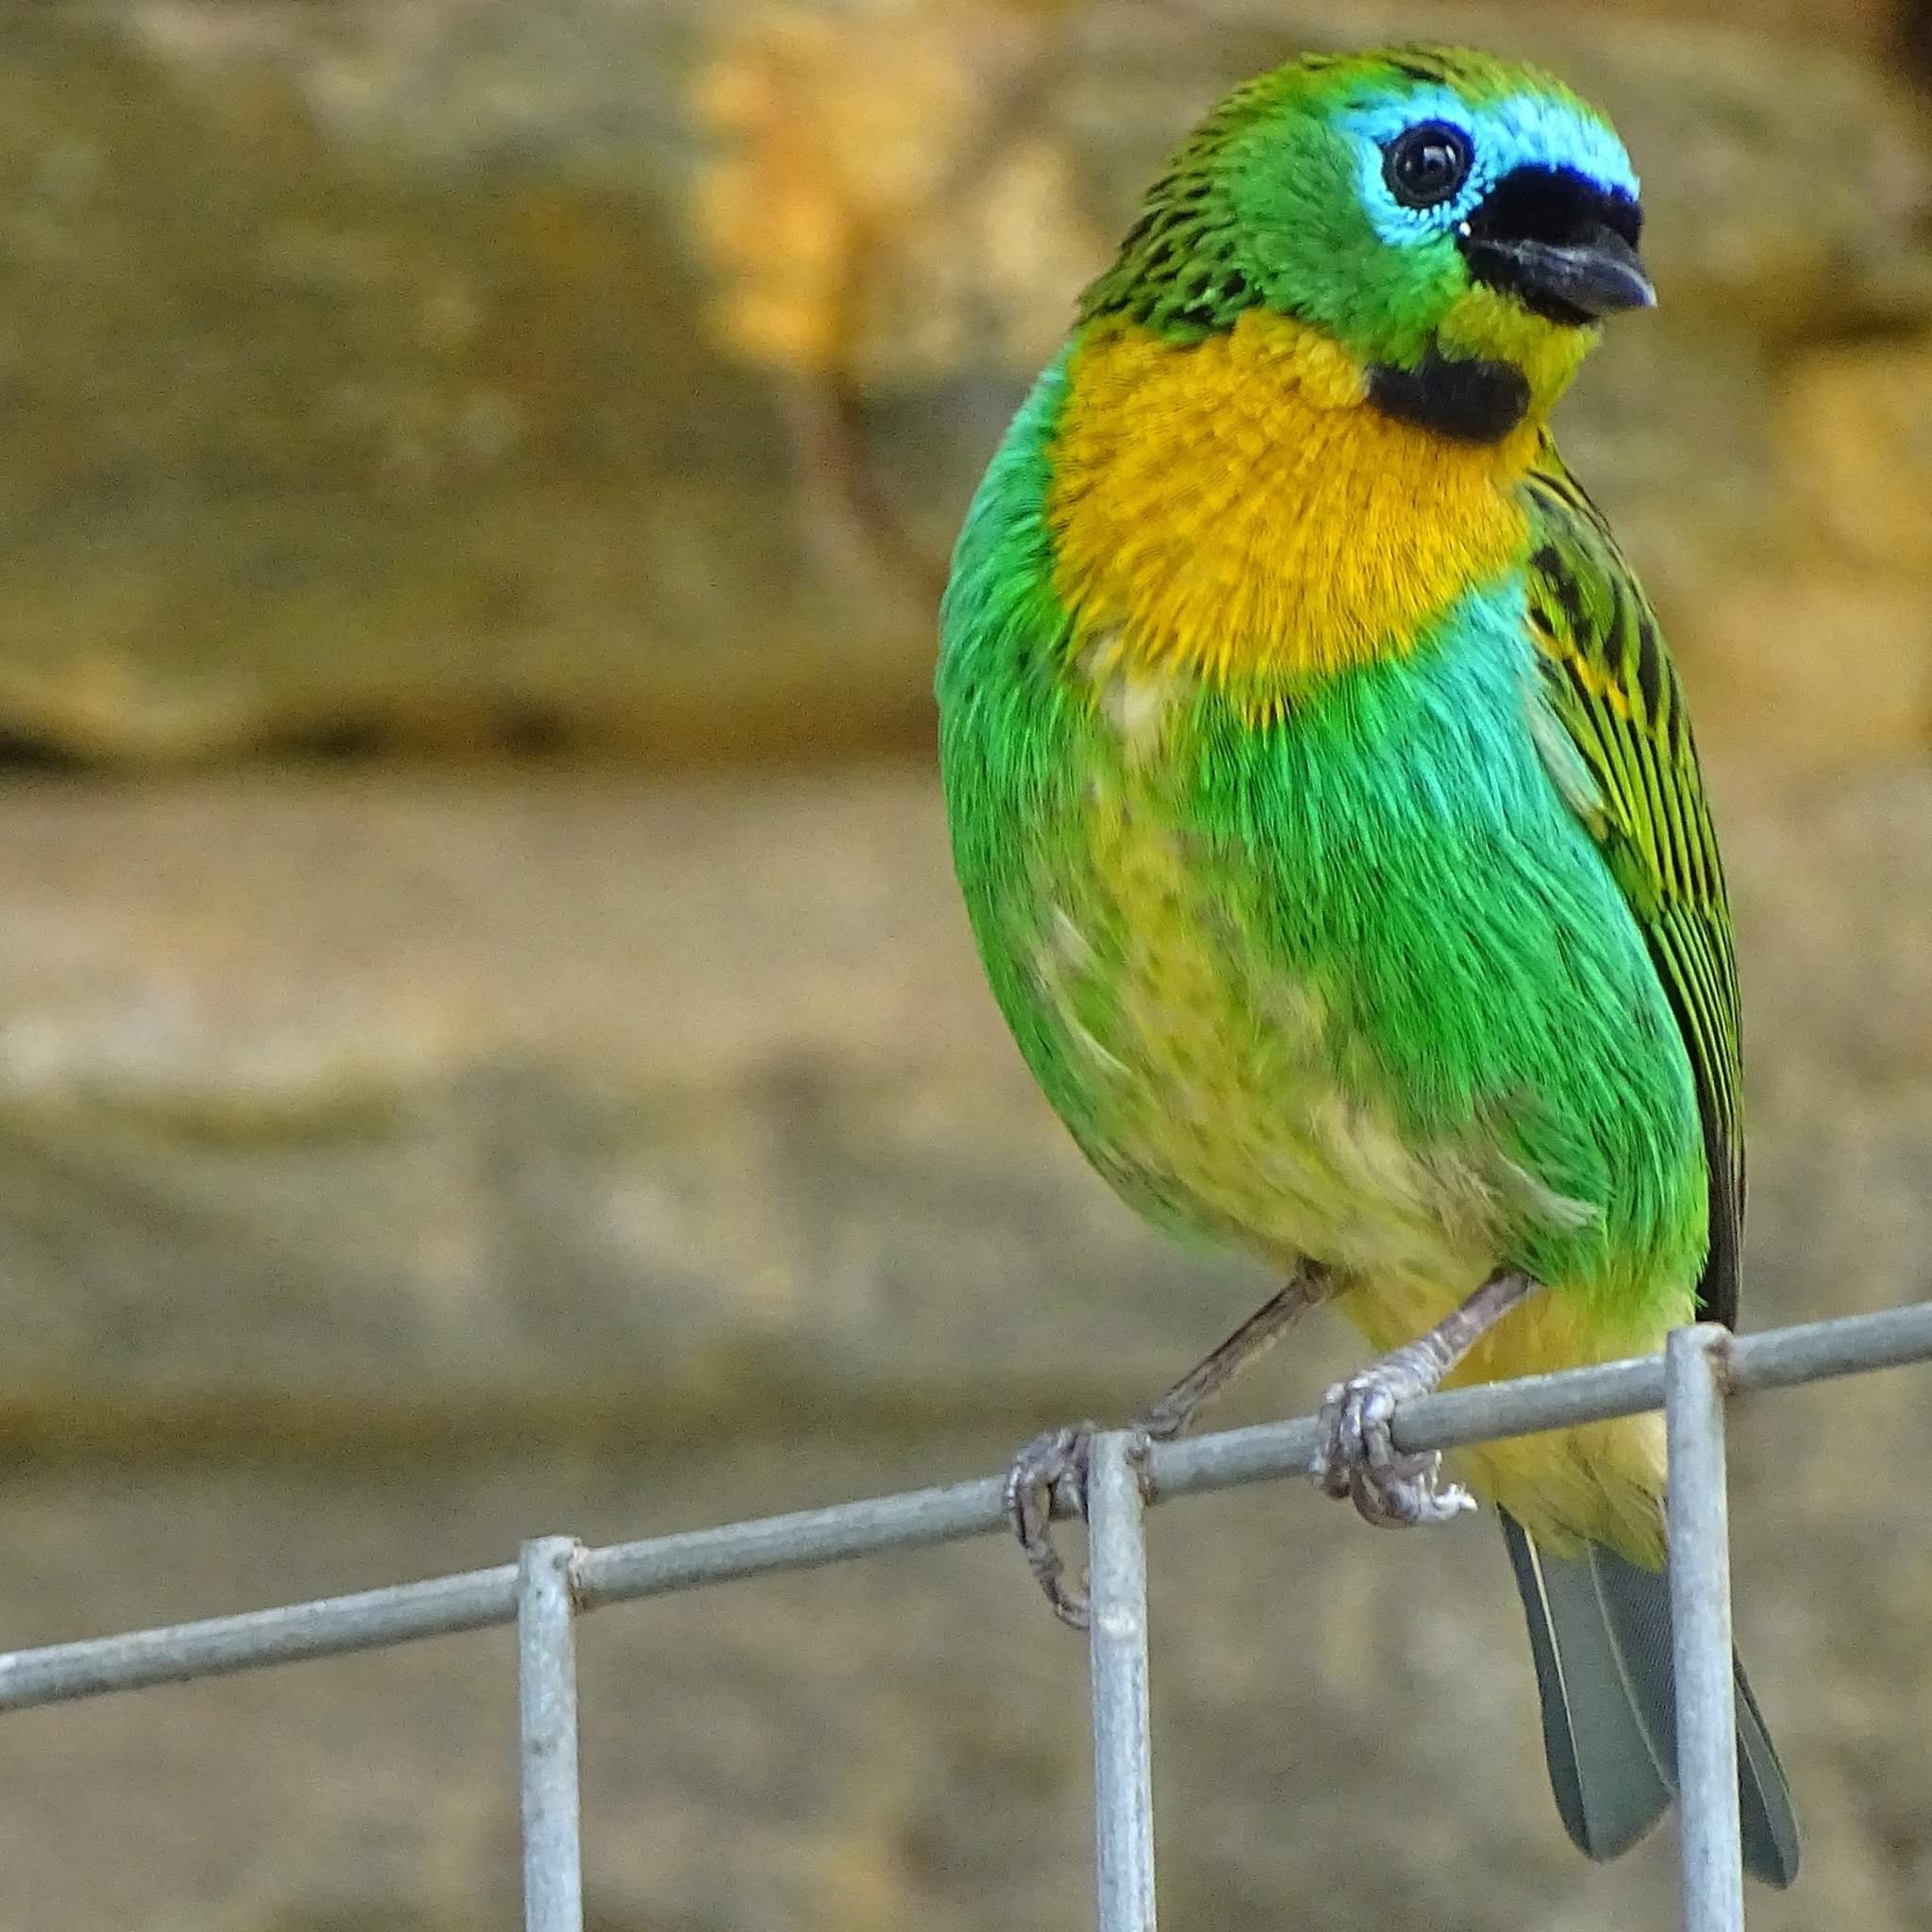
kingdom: Animalia
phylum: Chordata
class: Aves
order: Passeriformes
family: Thraupidae
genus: Tangara
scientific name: Tangara desmaresti
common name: Brassy-breasted tanager
